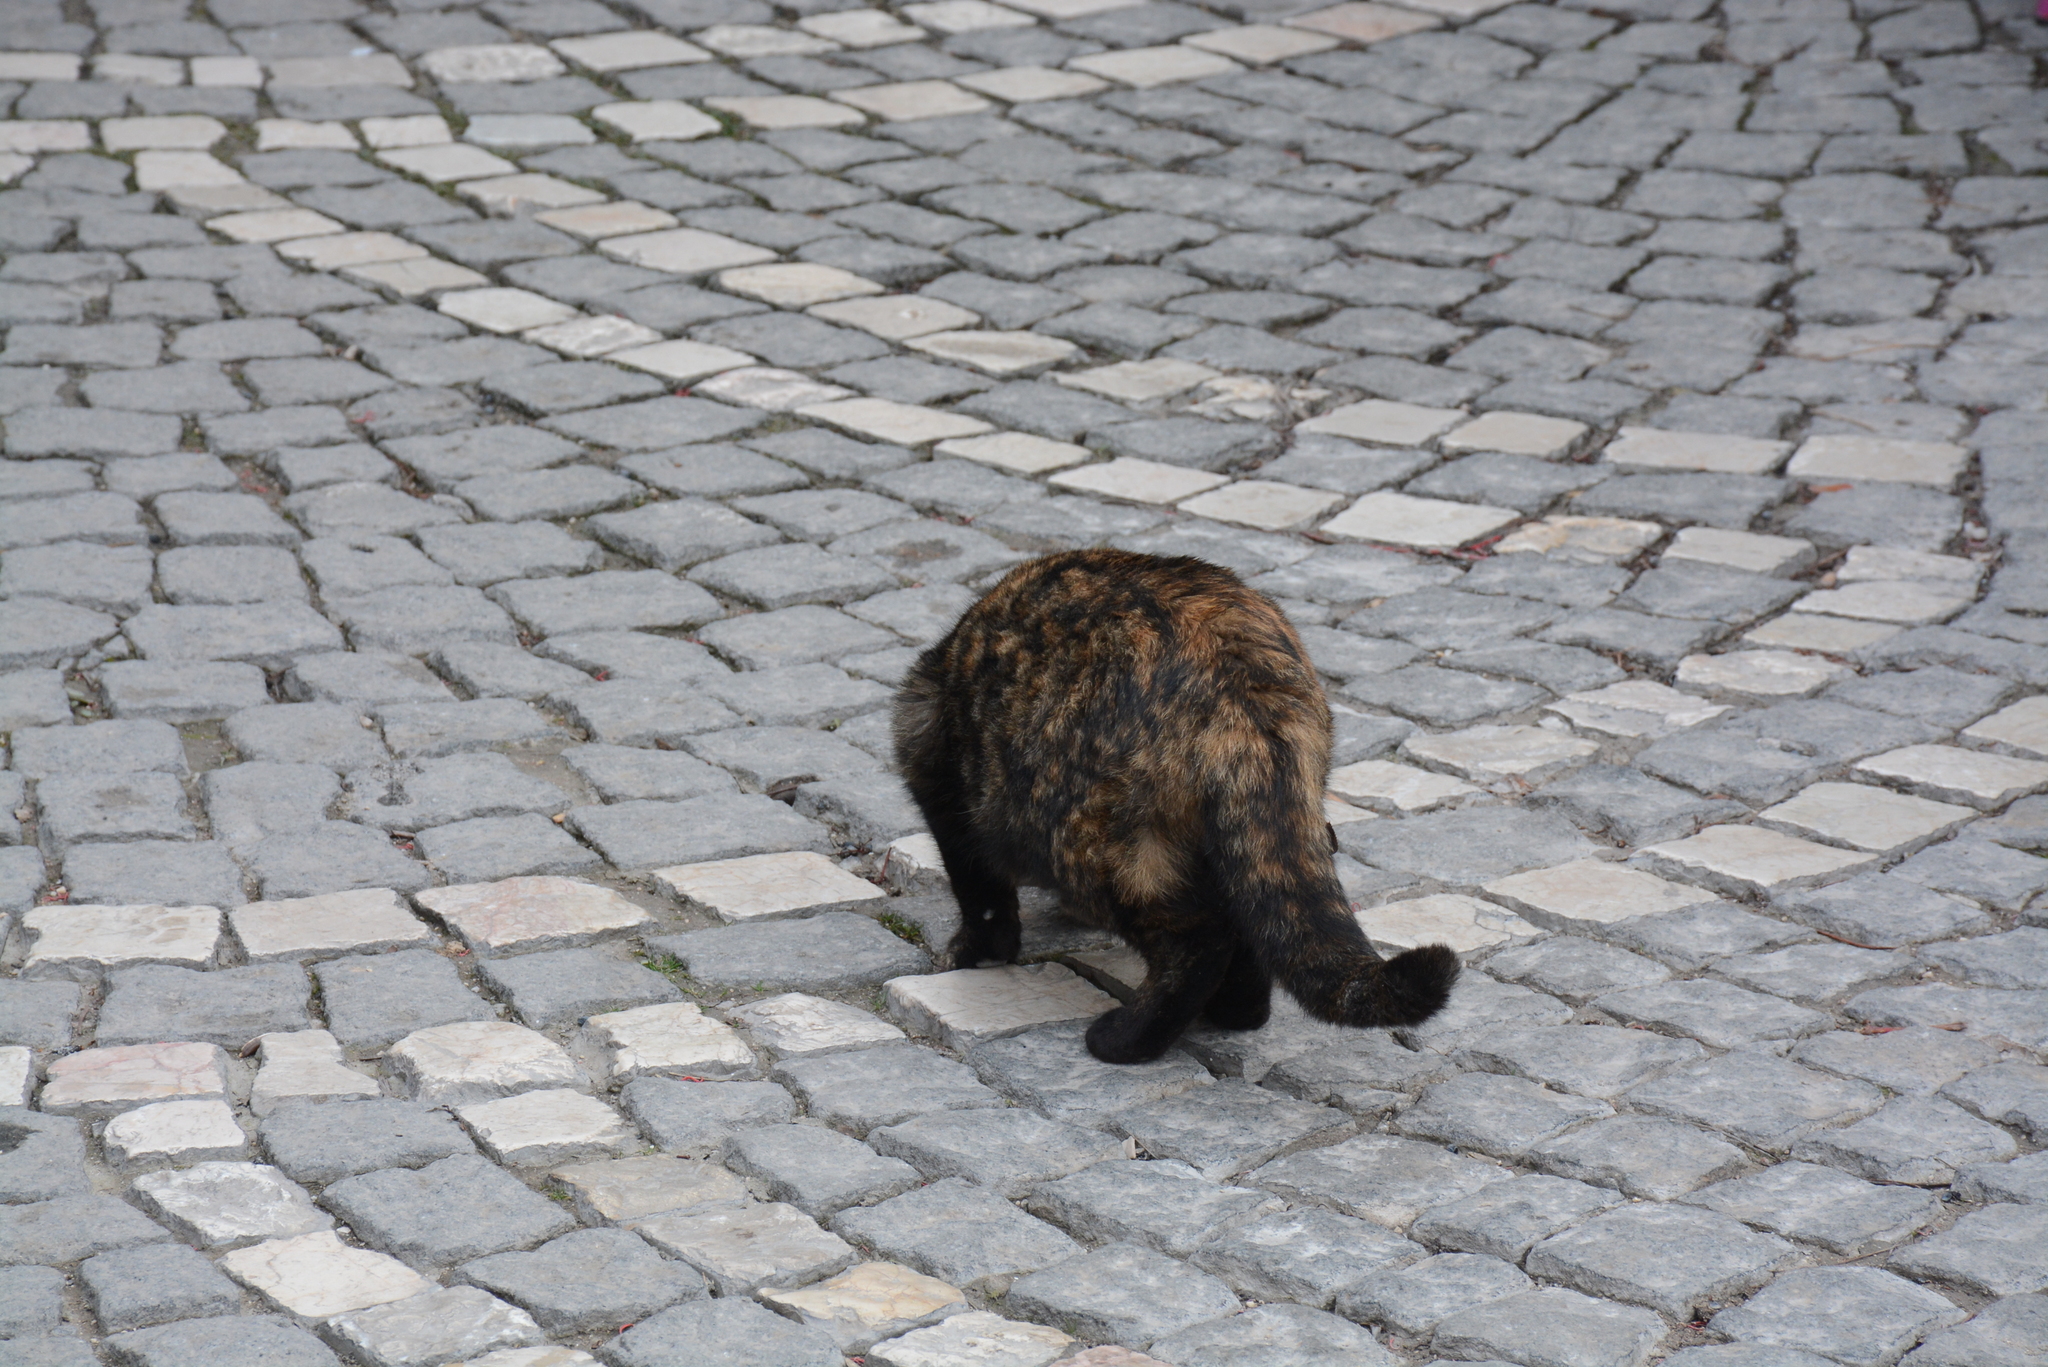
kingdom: Animalia
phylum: Chordata
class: Mammalia
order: Carnivora
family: Felidae
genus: Felis
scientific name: Felis catus
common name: Domestic cat
